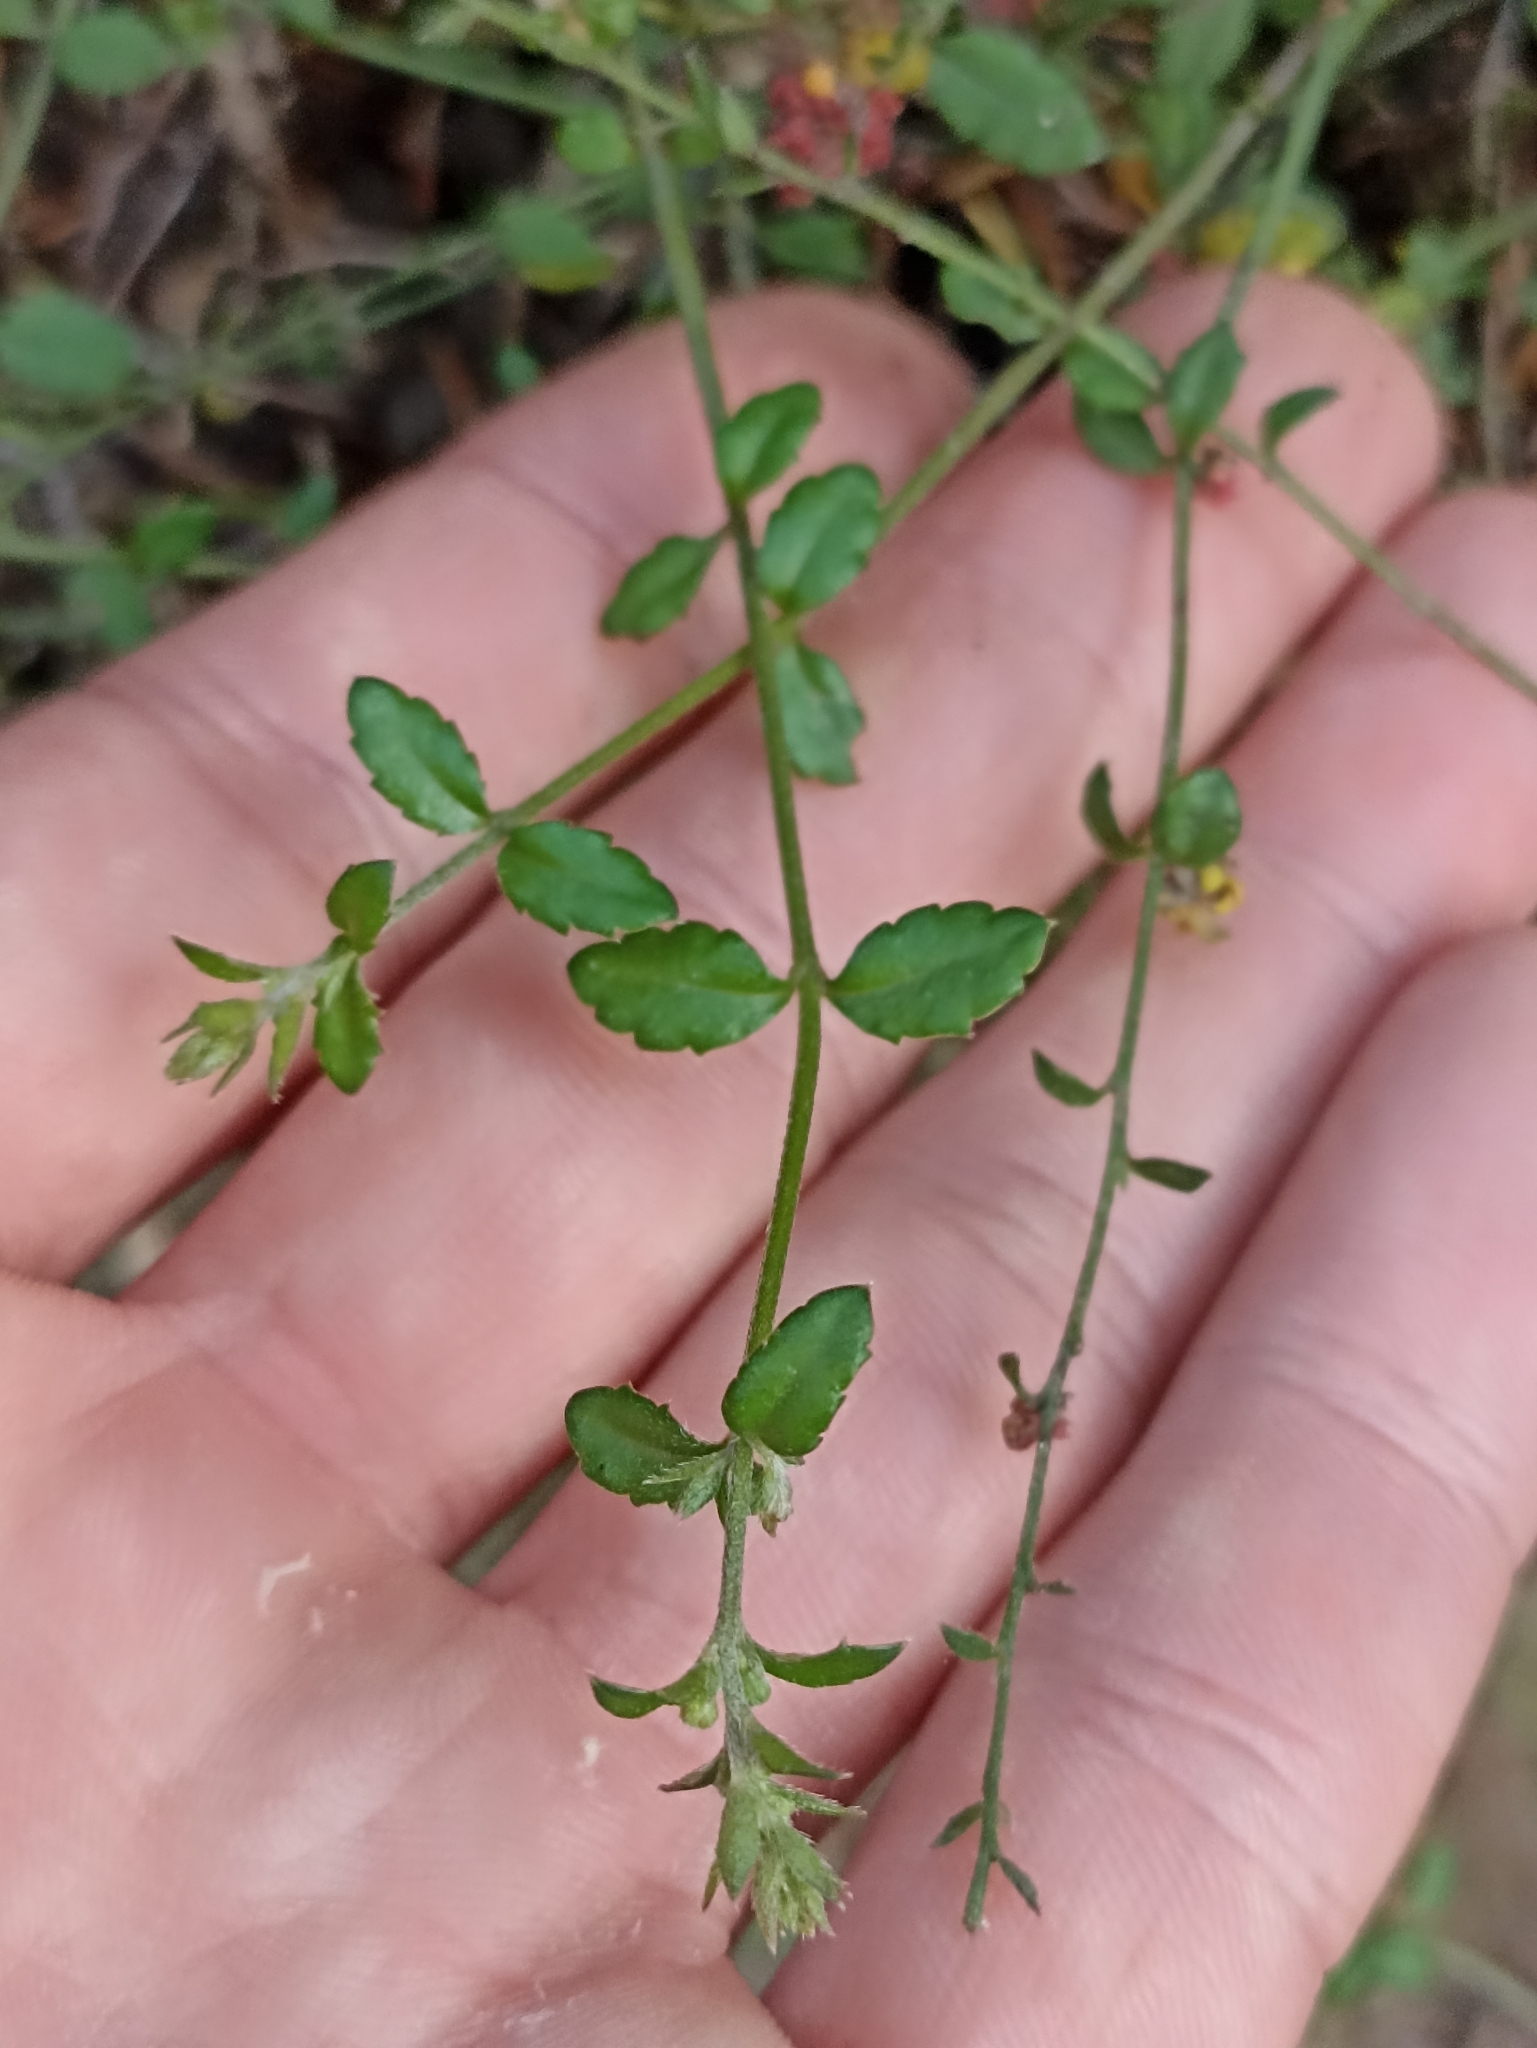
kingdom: Plantae
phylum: Tracheophyta
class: Magnoliopsida
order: Saxifragales
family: Haloragaceae
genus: Gonocarpus
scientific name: Gonocarpus incanus
